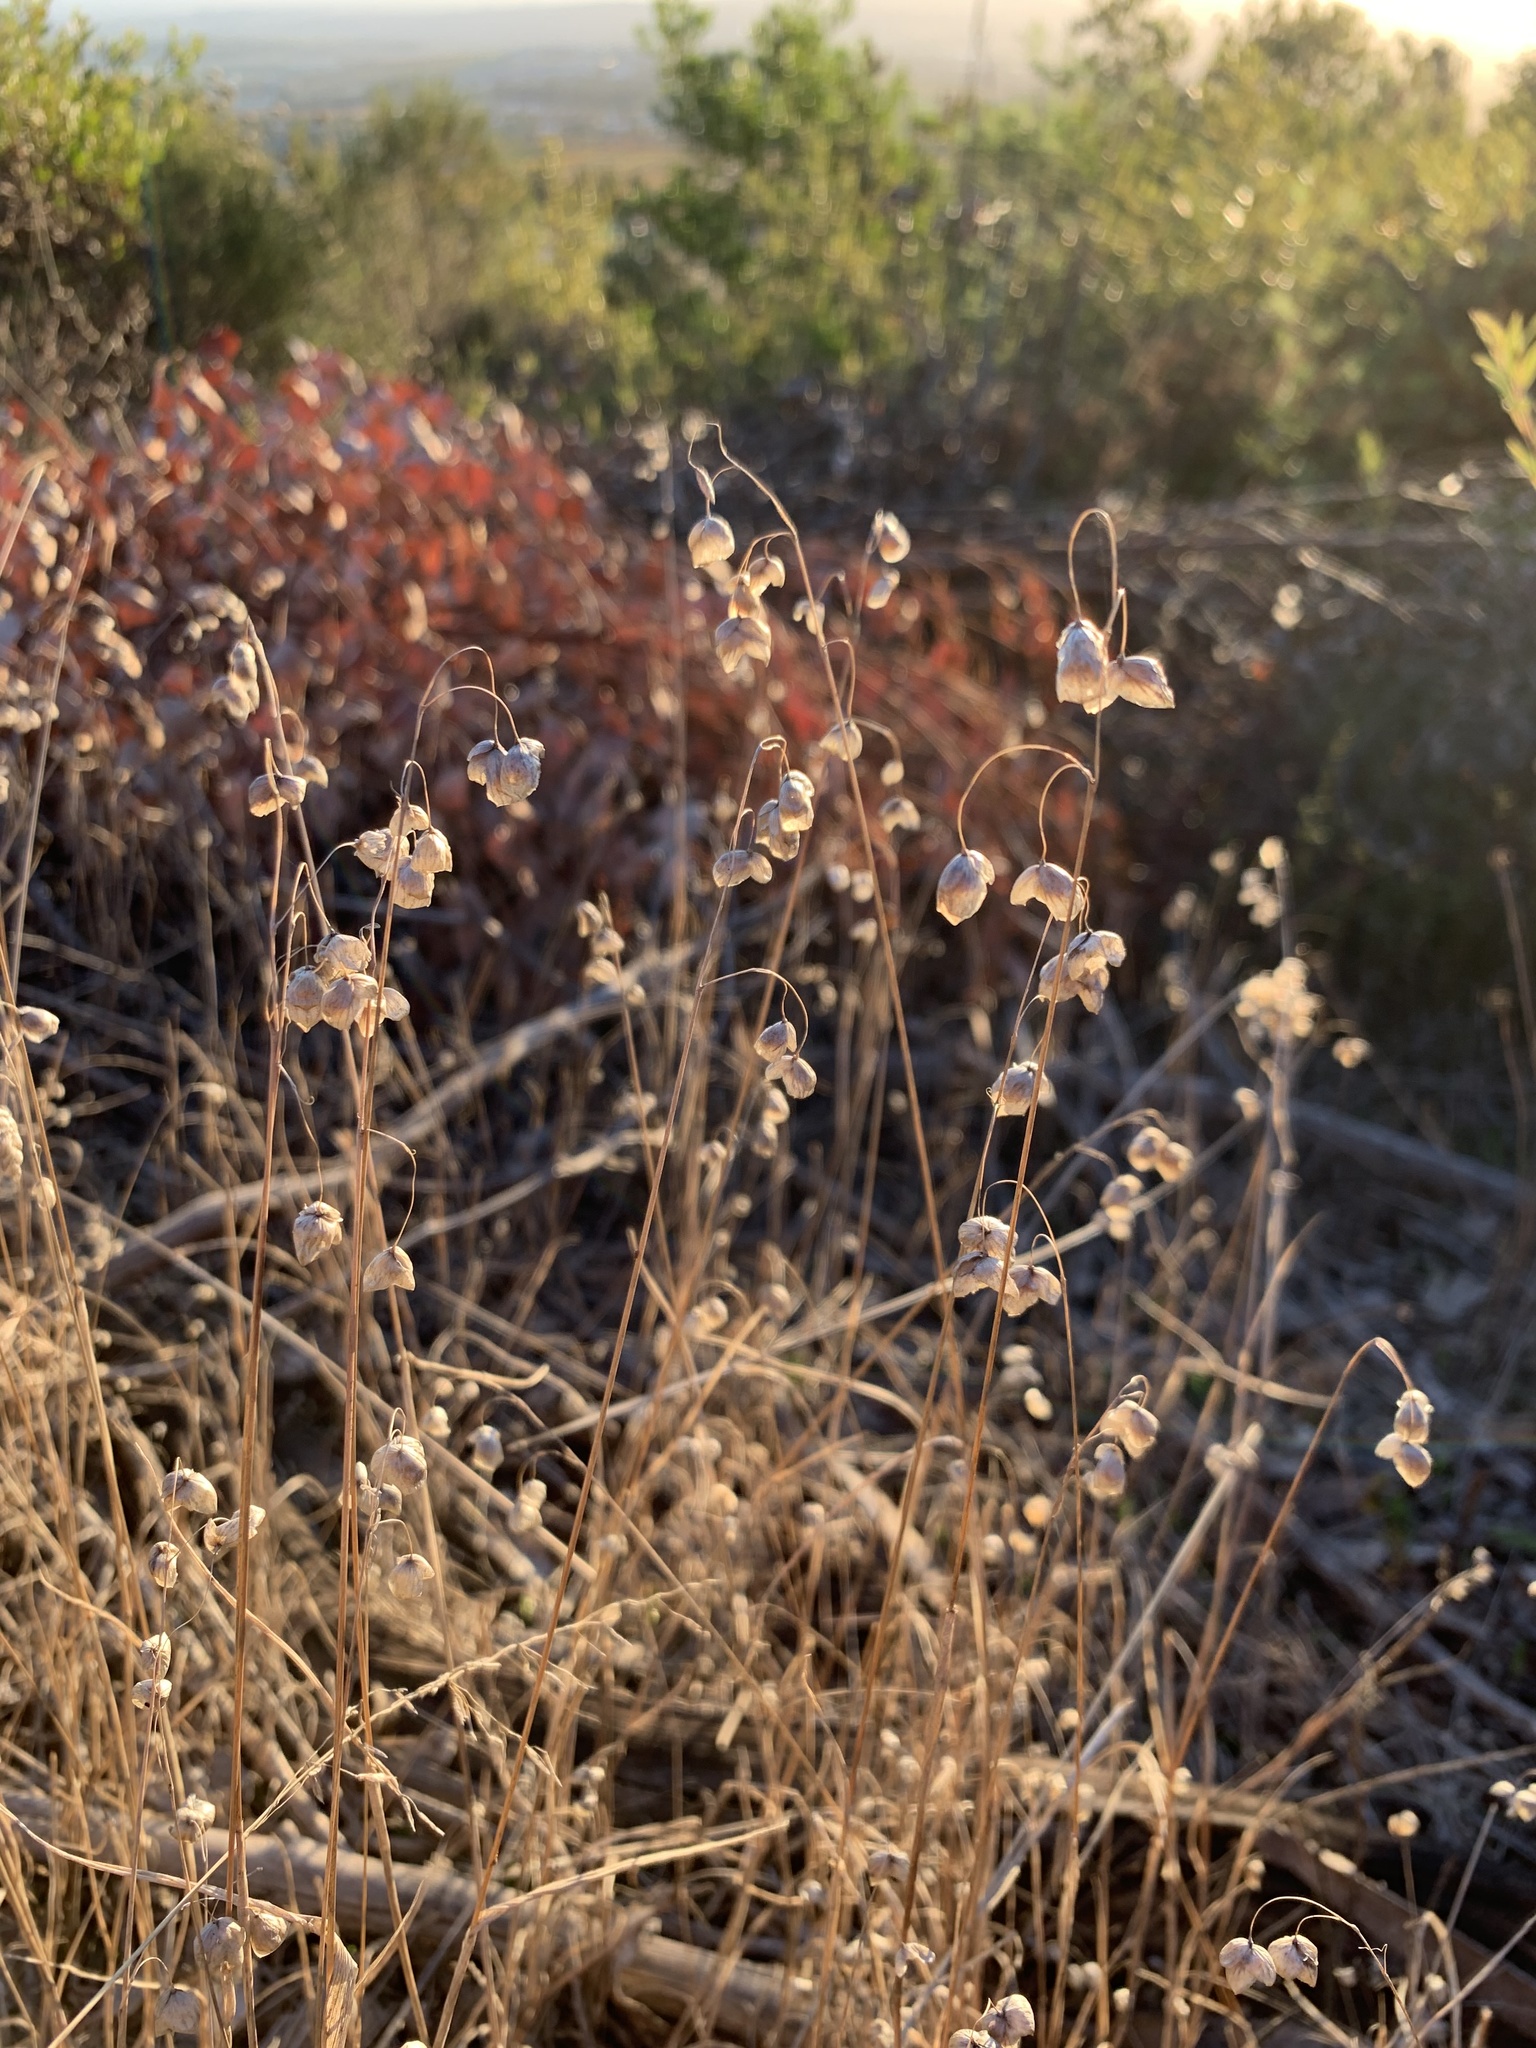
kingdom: Plantae
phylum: Tracheophyta
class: Liliopsida
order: Poales
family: Poaceae
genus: Briza
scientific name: Briza maxima
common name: Big quakinggrass
